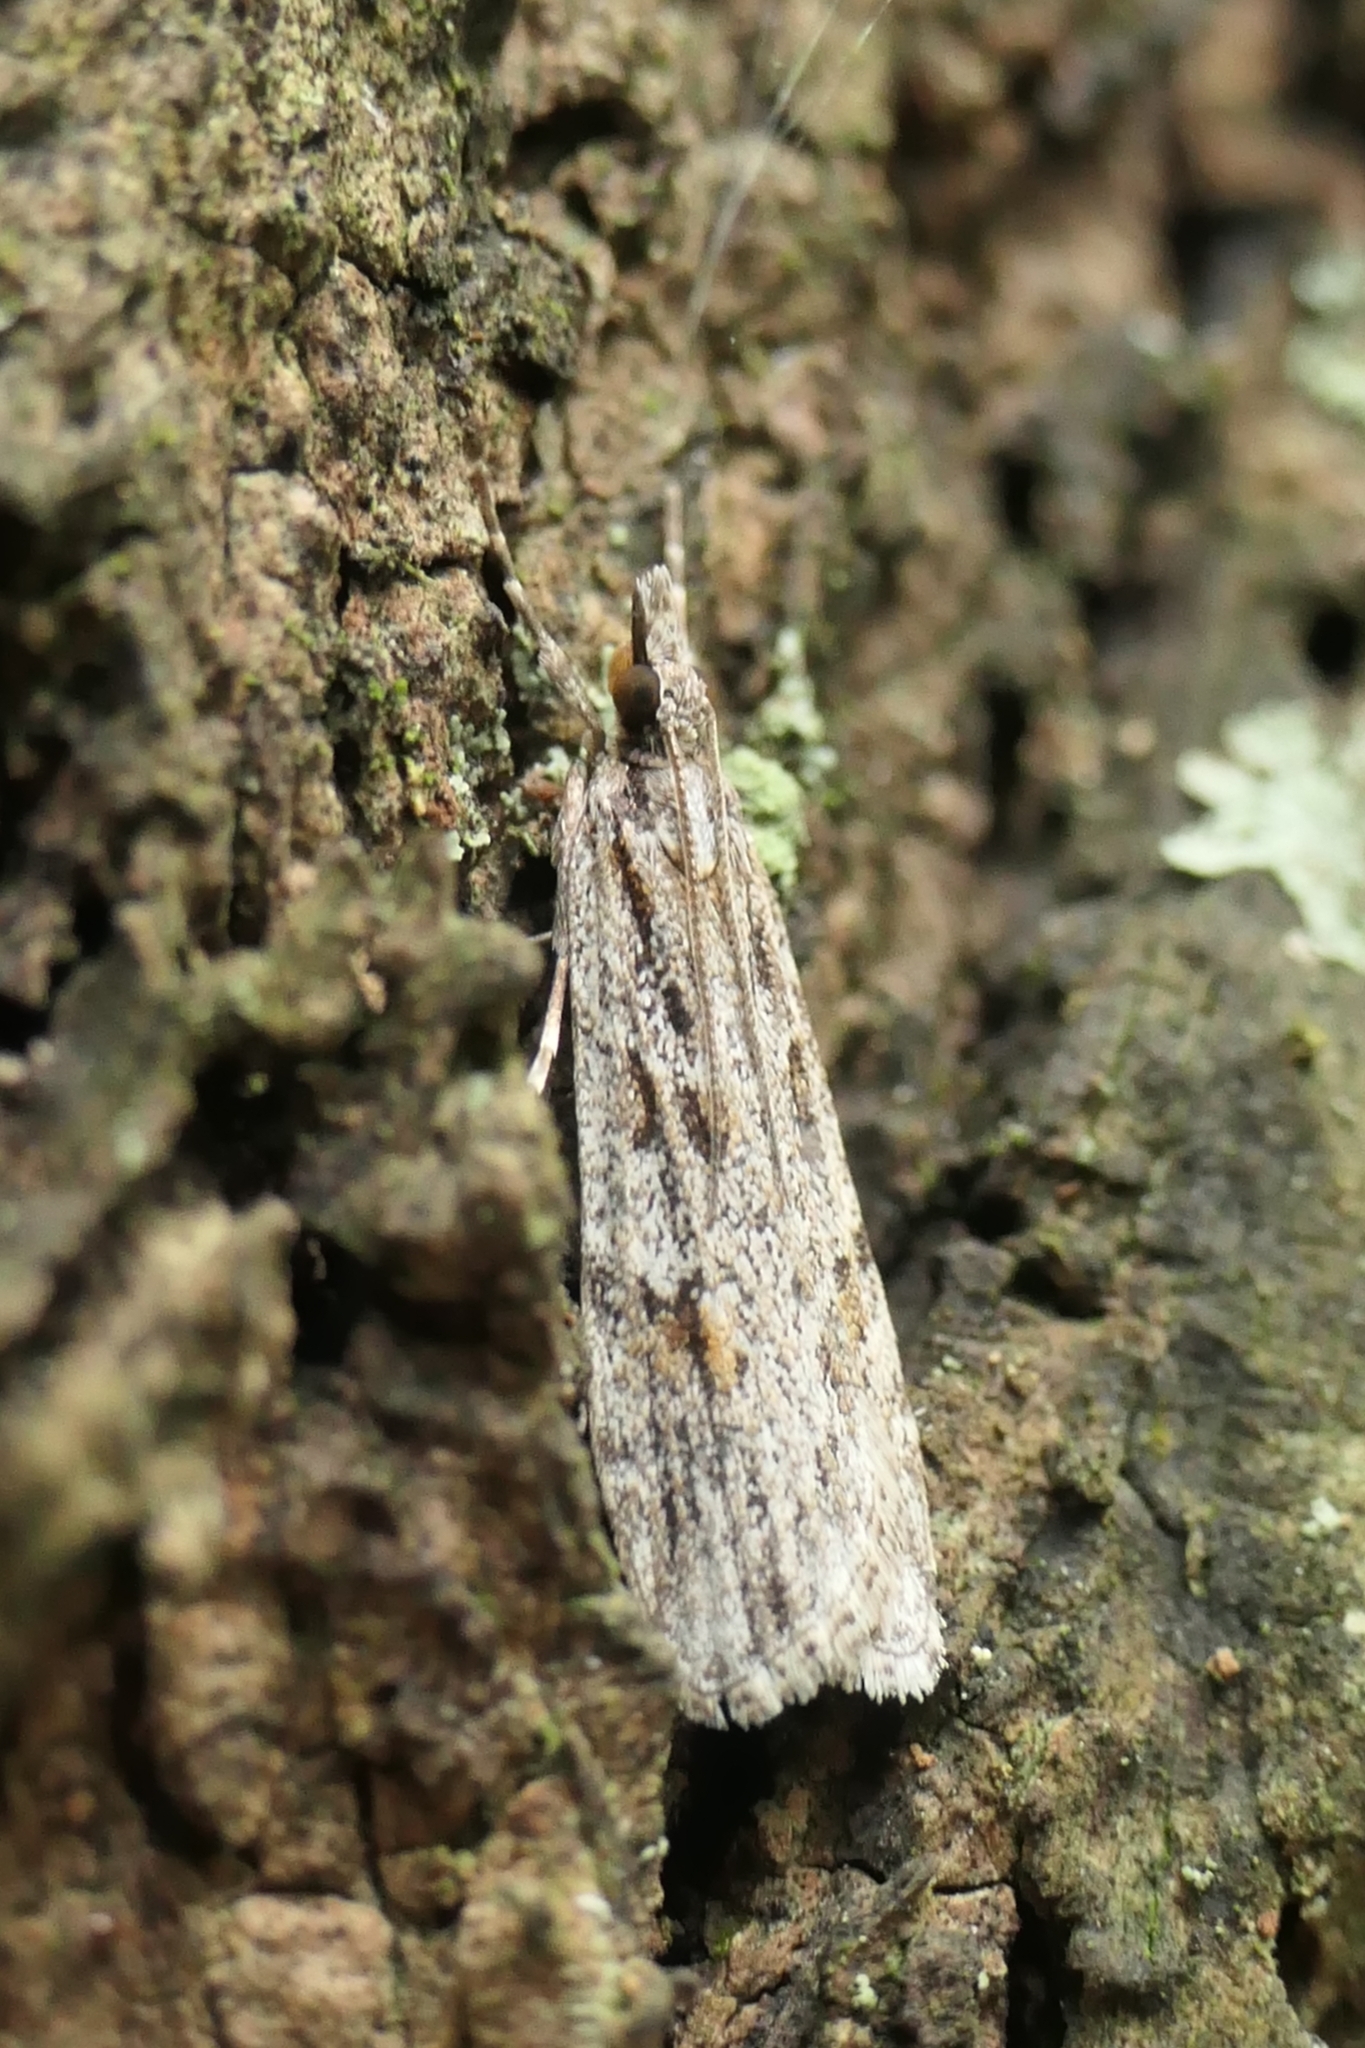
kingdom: Animalia
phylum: Arthropoda
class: Insecta
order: Lepidoptera
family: Crambidae
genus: Scoparia
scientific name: Scoparia chalicodes
